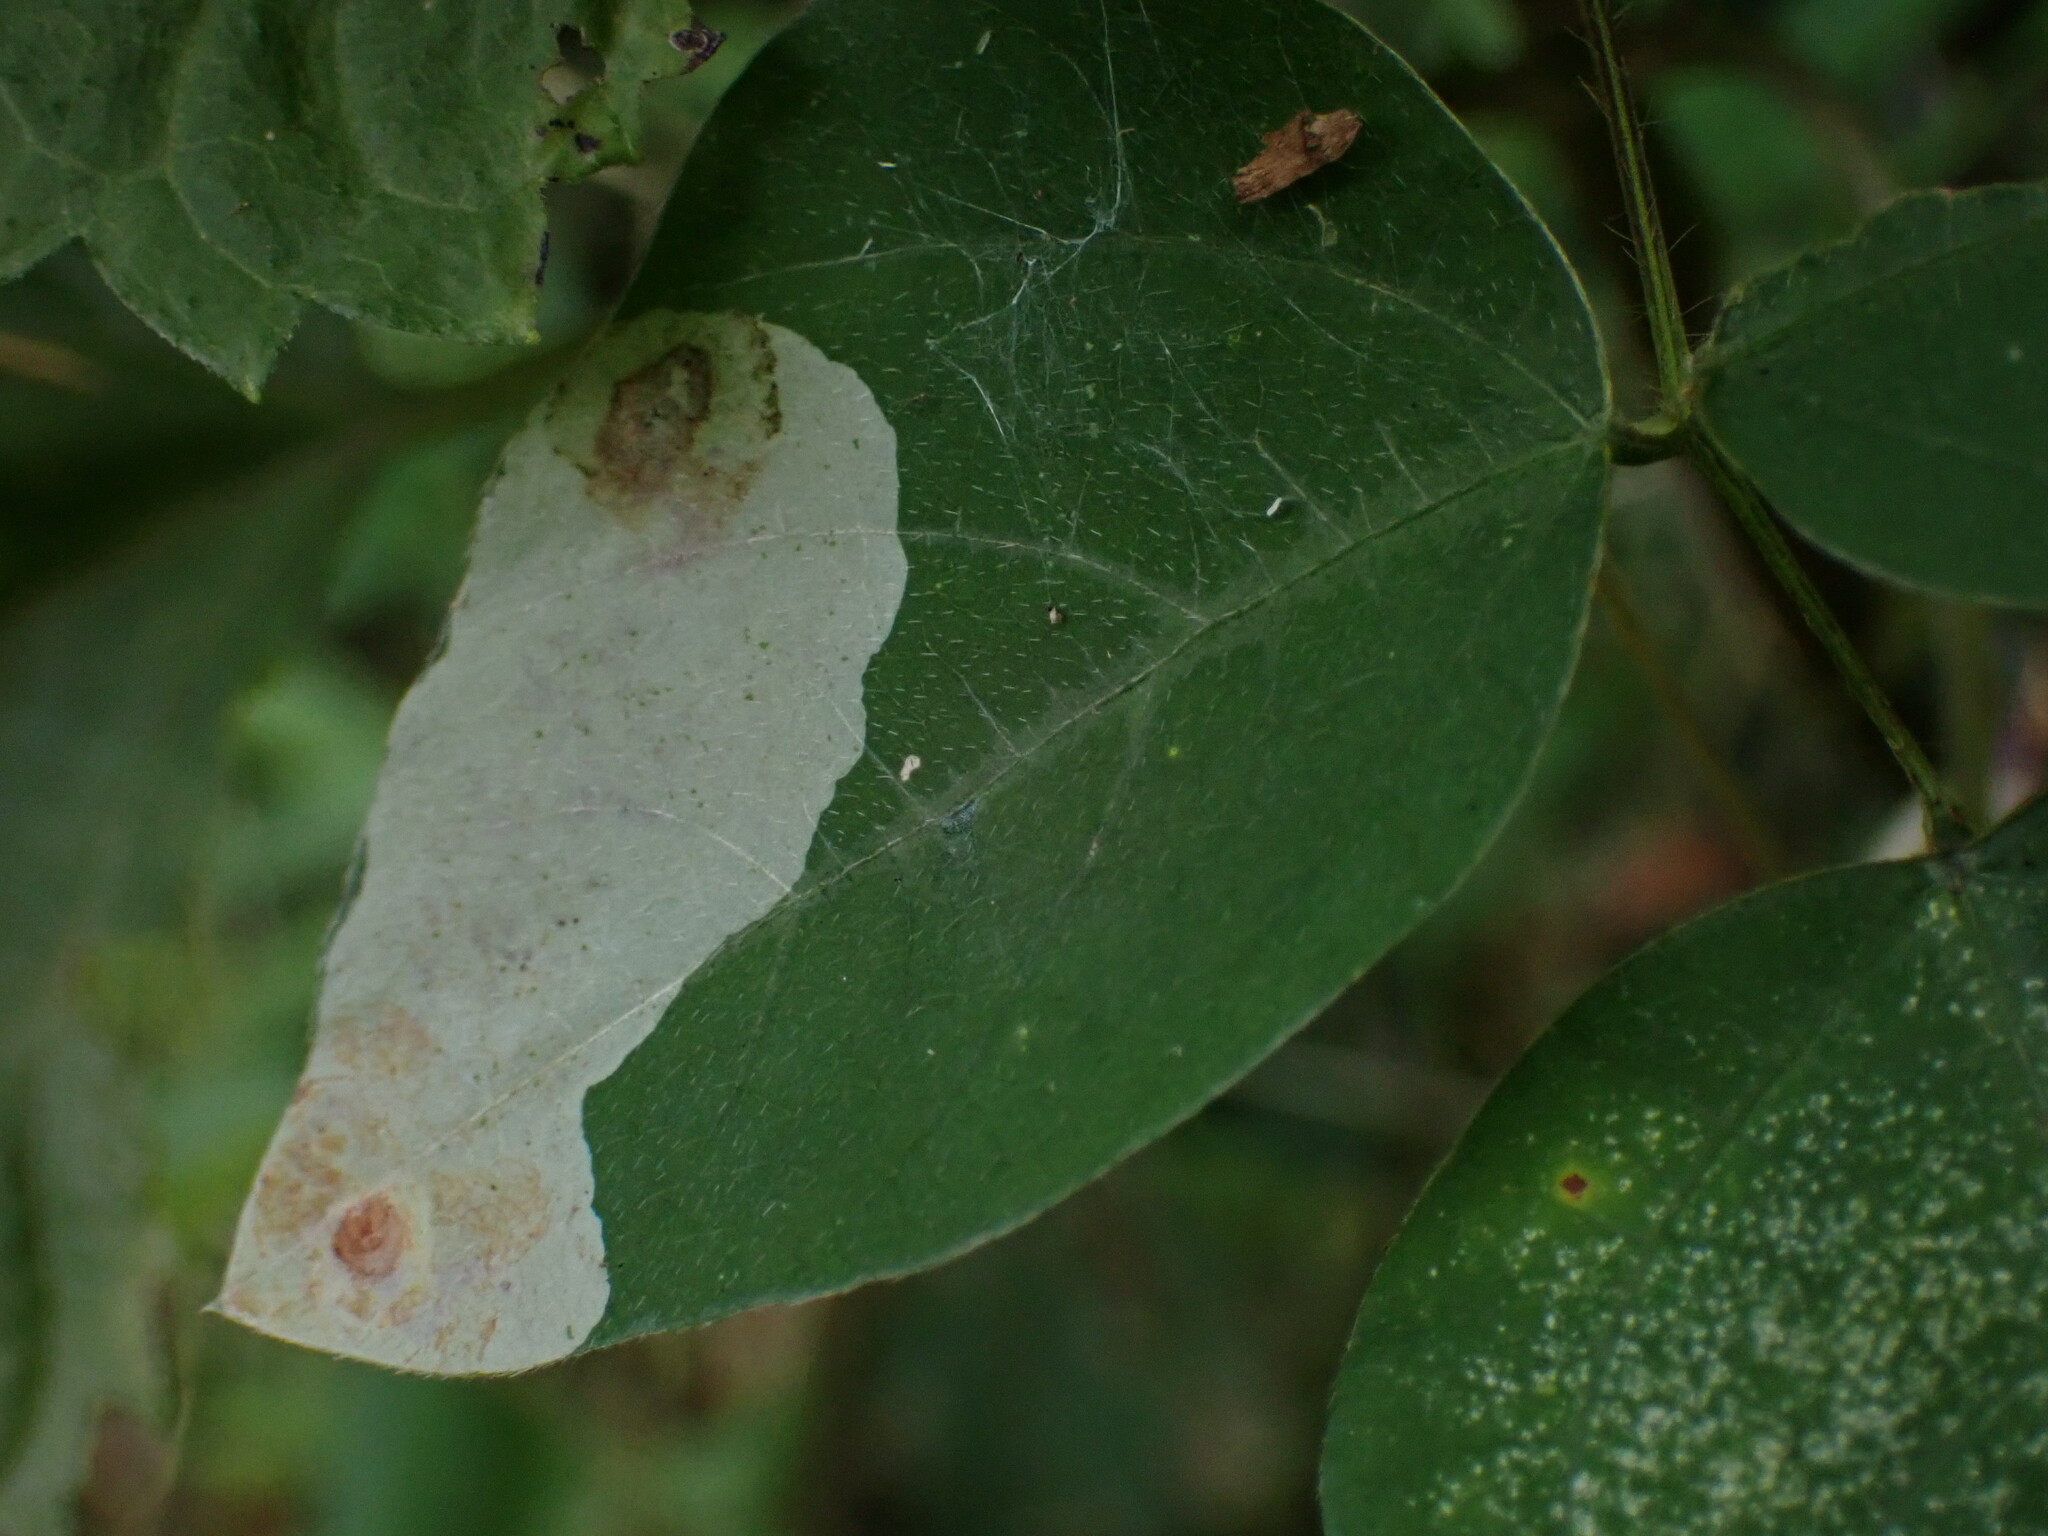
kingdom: Animalia
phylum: Arthropoda
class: Insecta
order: Lepidoptera
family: Gracillariidae
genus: Leucanthiza
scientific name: Leucanthiza amphicarpeaefoliella
